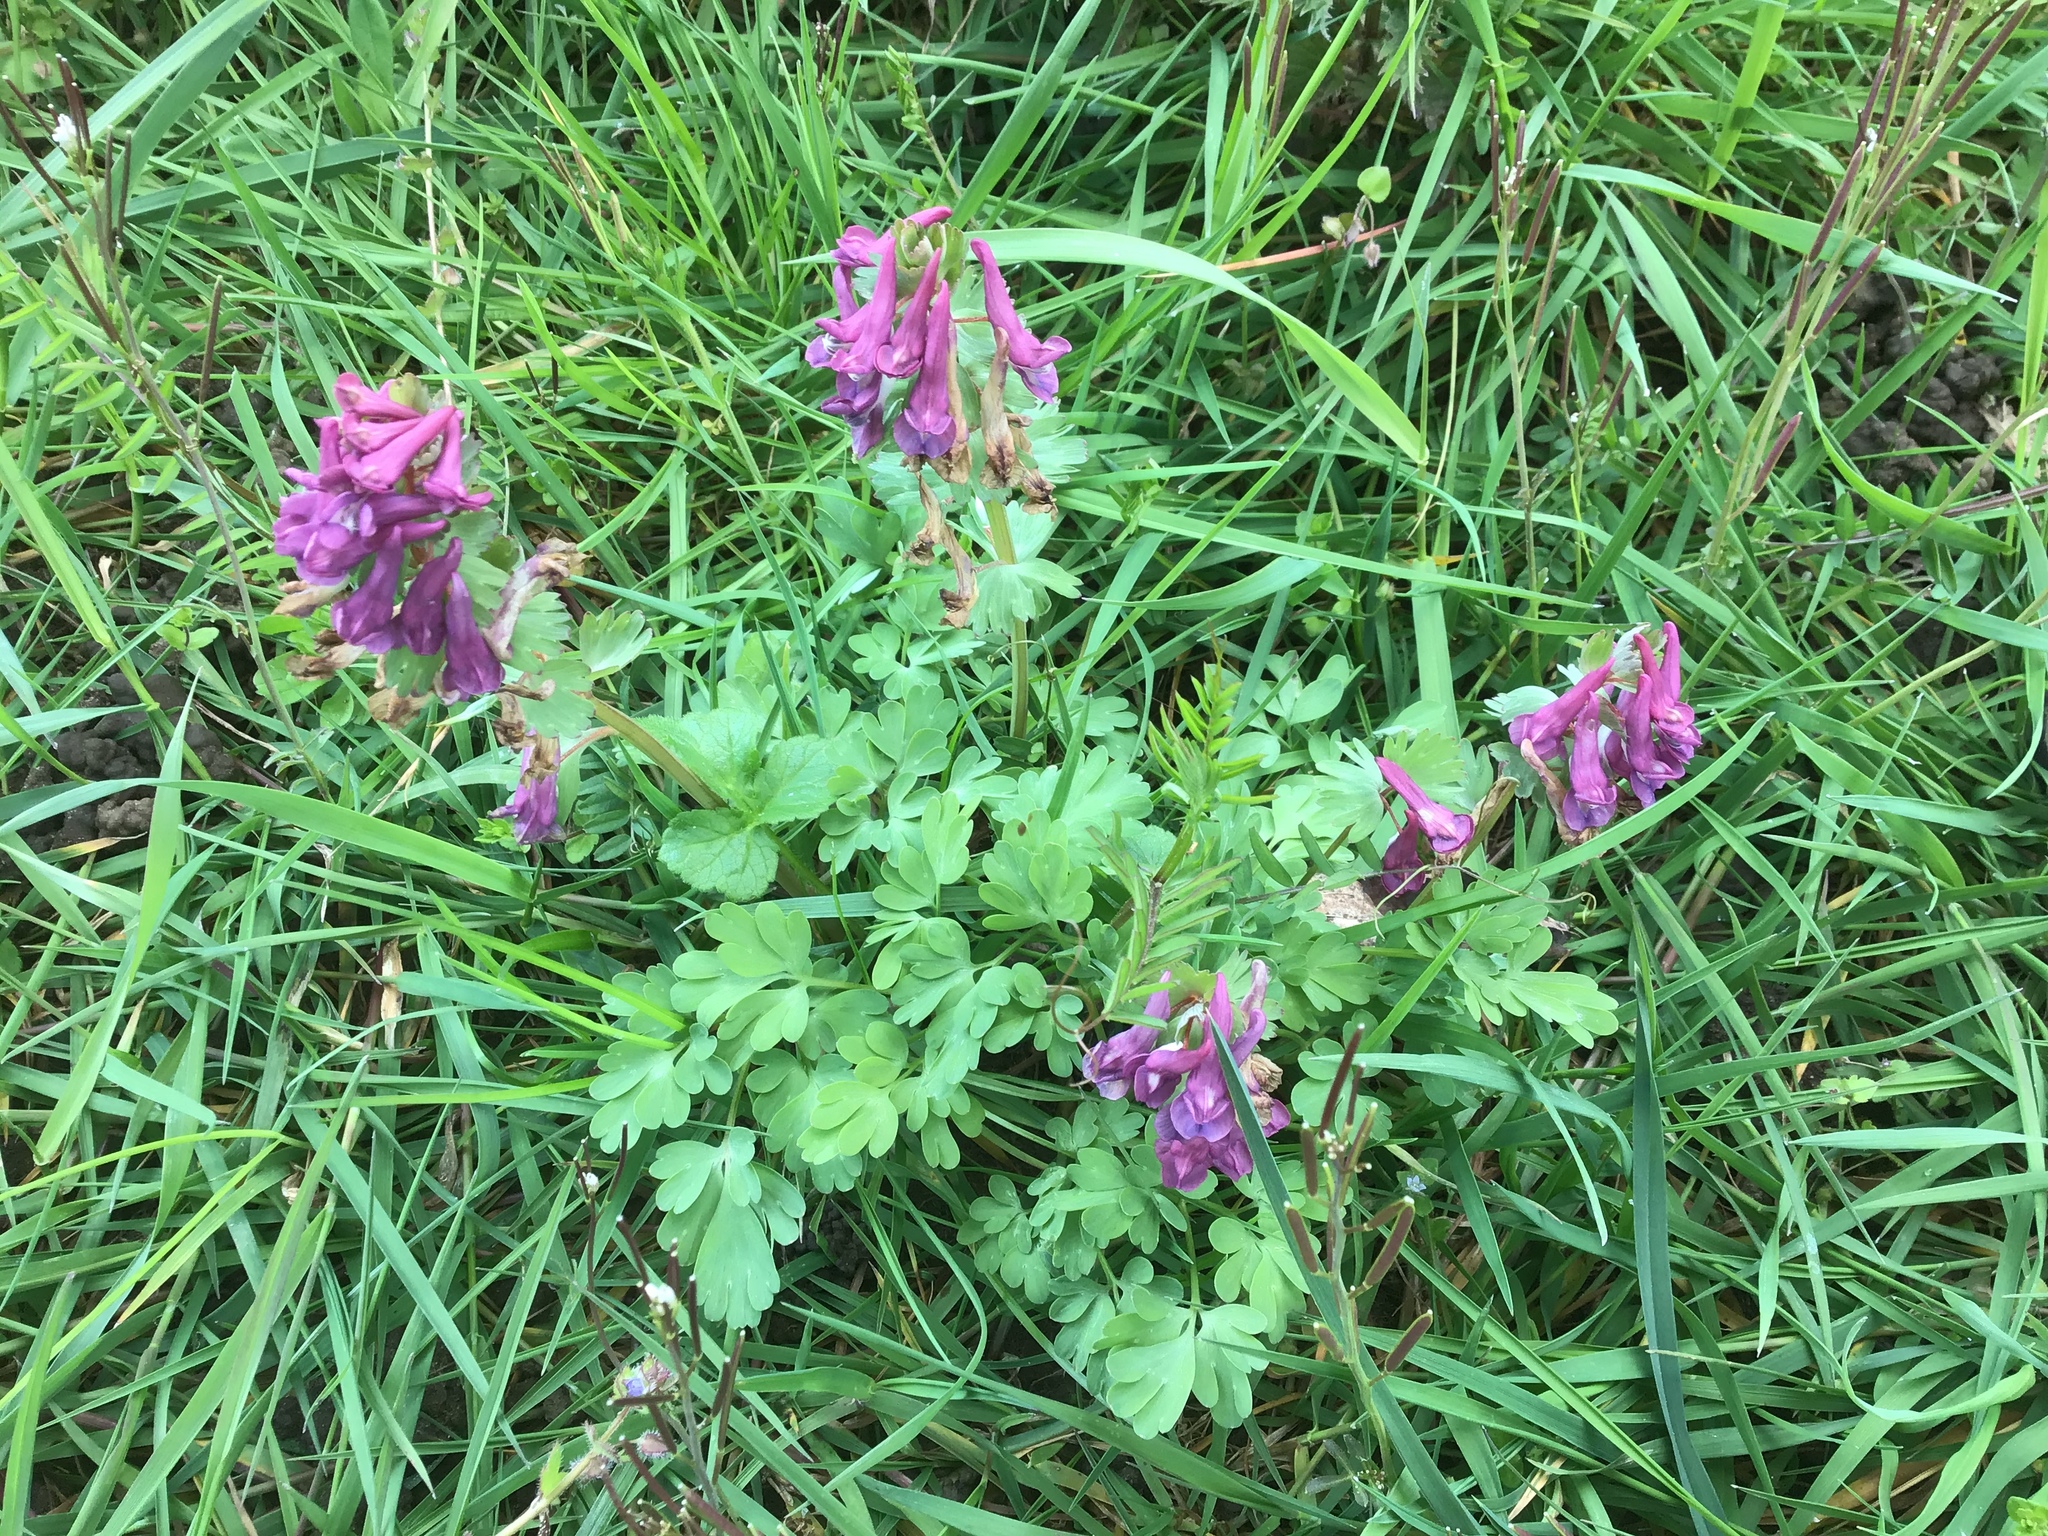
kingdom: Plantae
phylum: Tracheophyta
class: Magnoliopsida
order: Ranunculales
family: Papaveraceae
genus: Corydalis
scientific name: Corydalis solida
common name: Bird-in-a-bush
